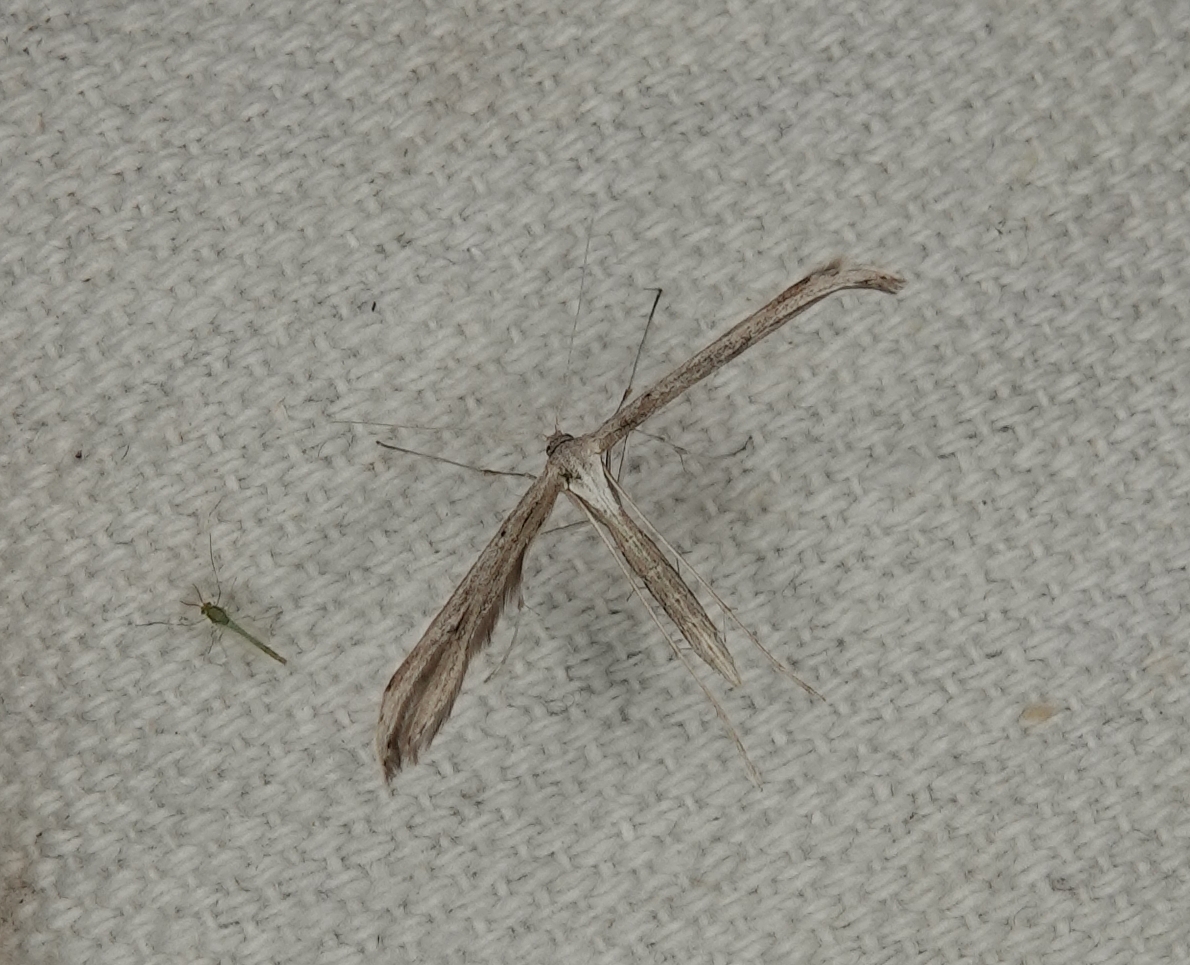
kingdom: Animalia
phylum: Arthropoda
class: Insecta
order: Lepidoptera
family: Pterophoridae
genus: Emmelina
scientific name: Emmelina monodactyla
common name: Common plume
